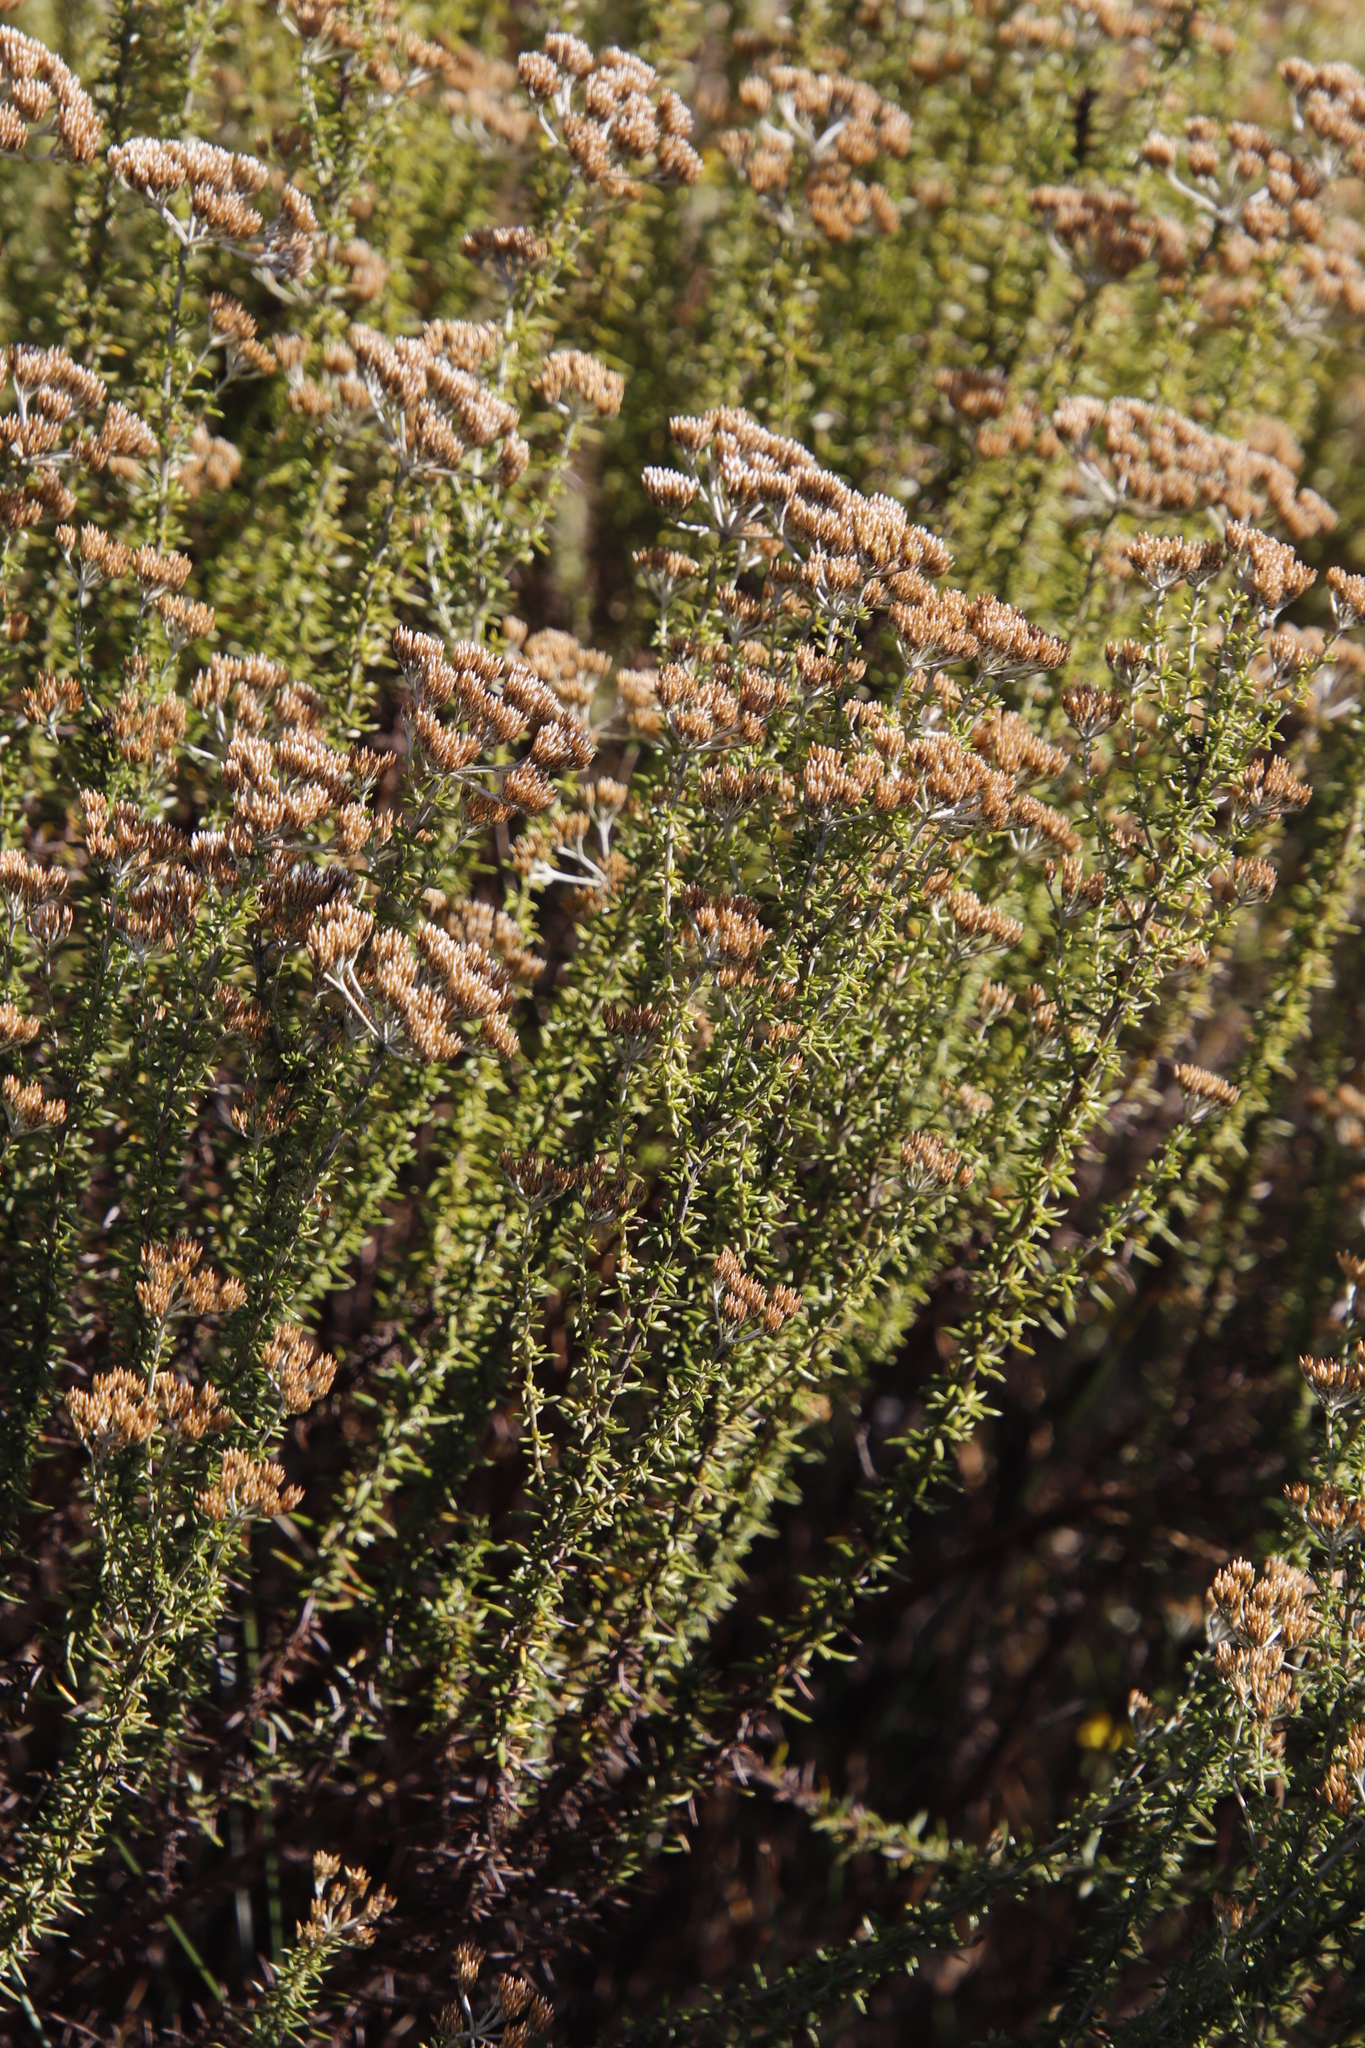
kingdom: Plantae
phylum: Tracheophyta
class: Magnoliopsida
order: Asterales
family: Asteraceae
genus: Metalasia
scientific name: Metalasia densa
